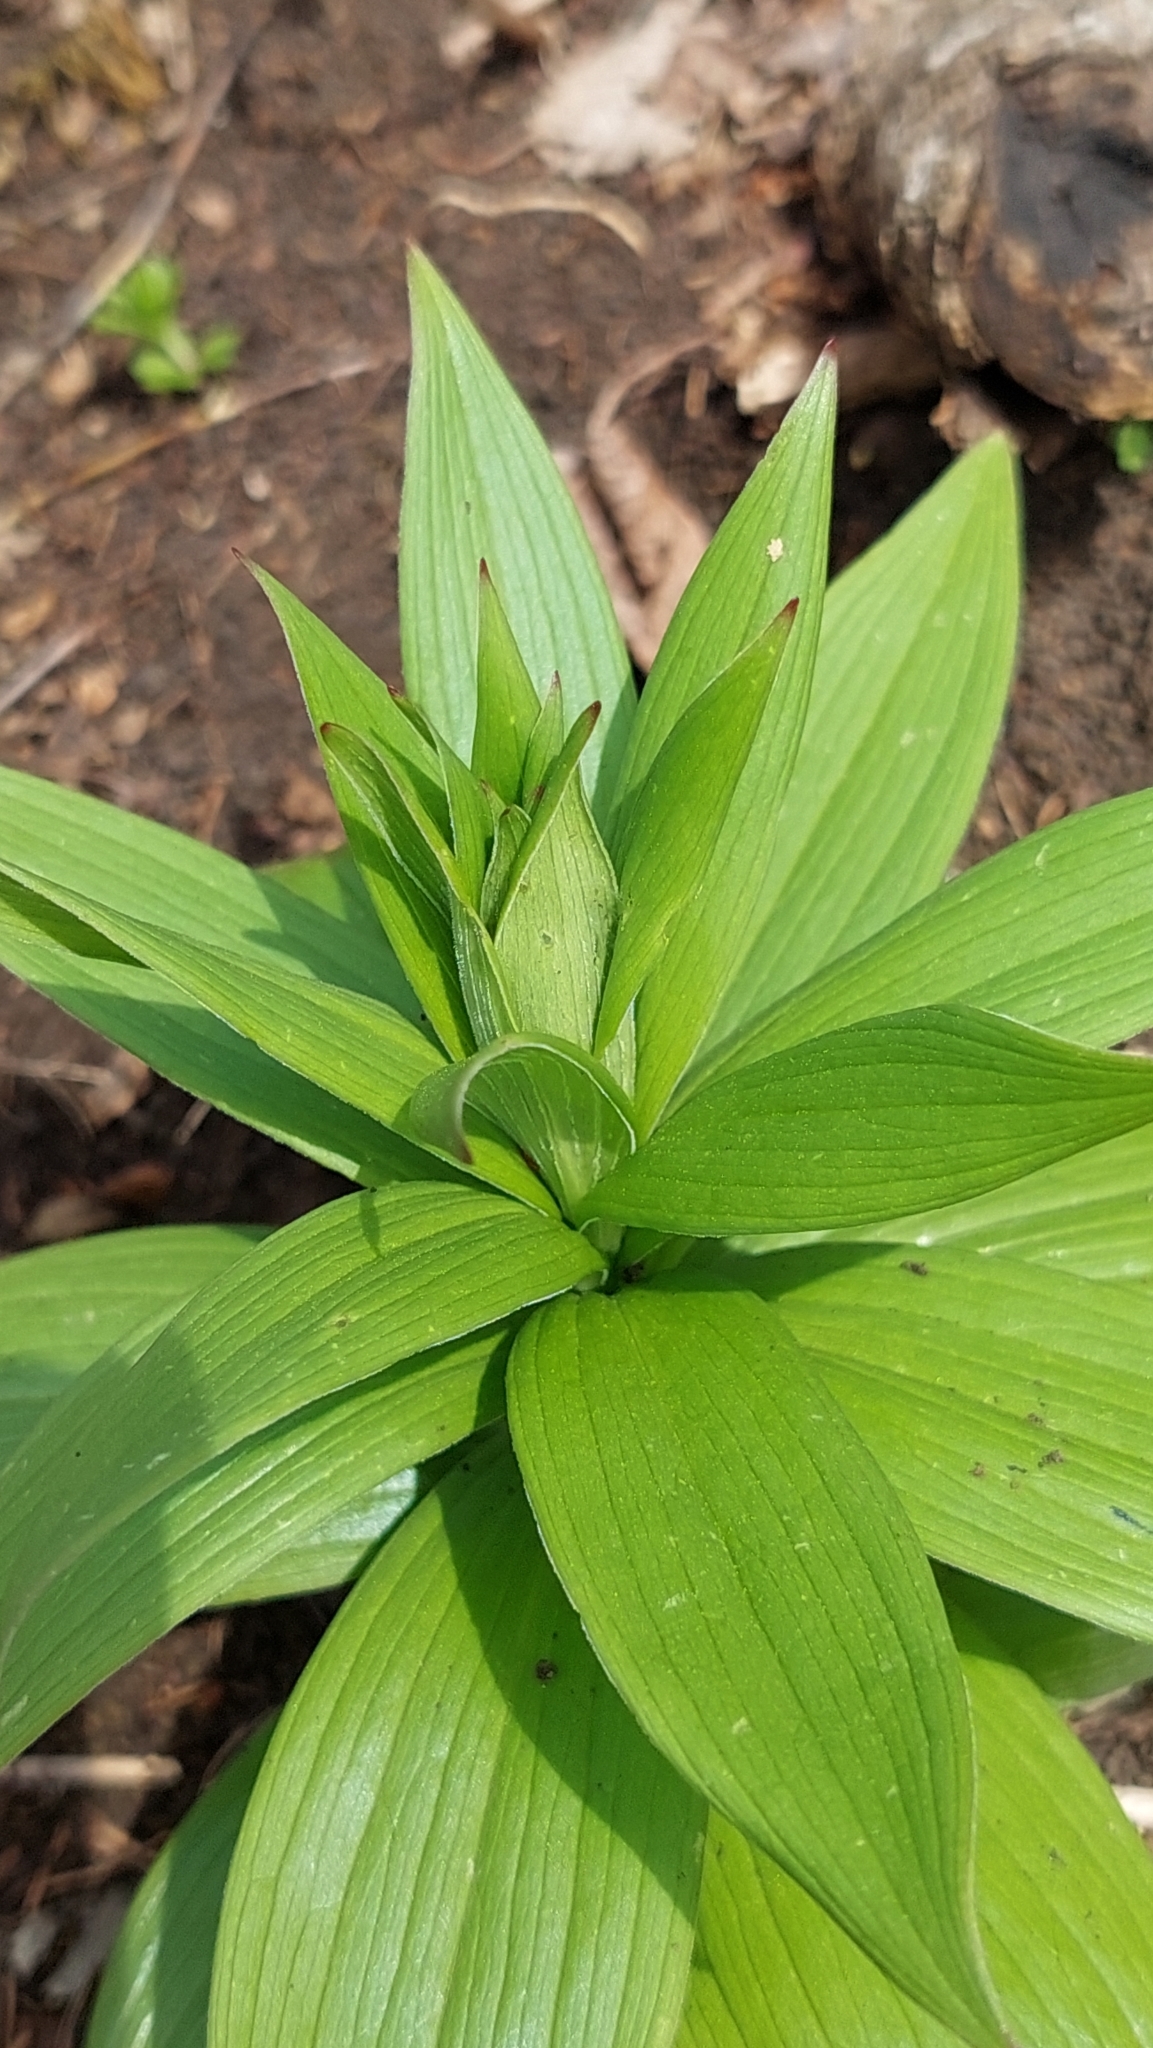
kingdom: Plantae
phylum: Tracheophyta
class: Liliopsida
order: Liliales
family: Liliaceae
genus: Lilium
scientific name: Lilium monadelphum
